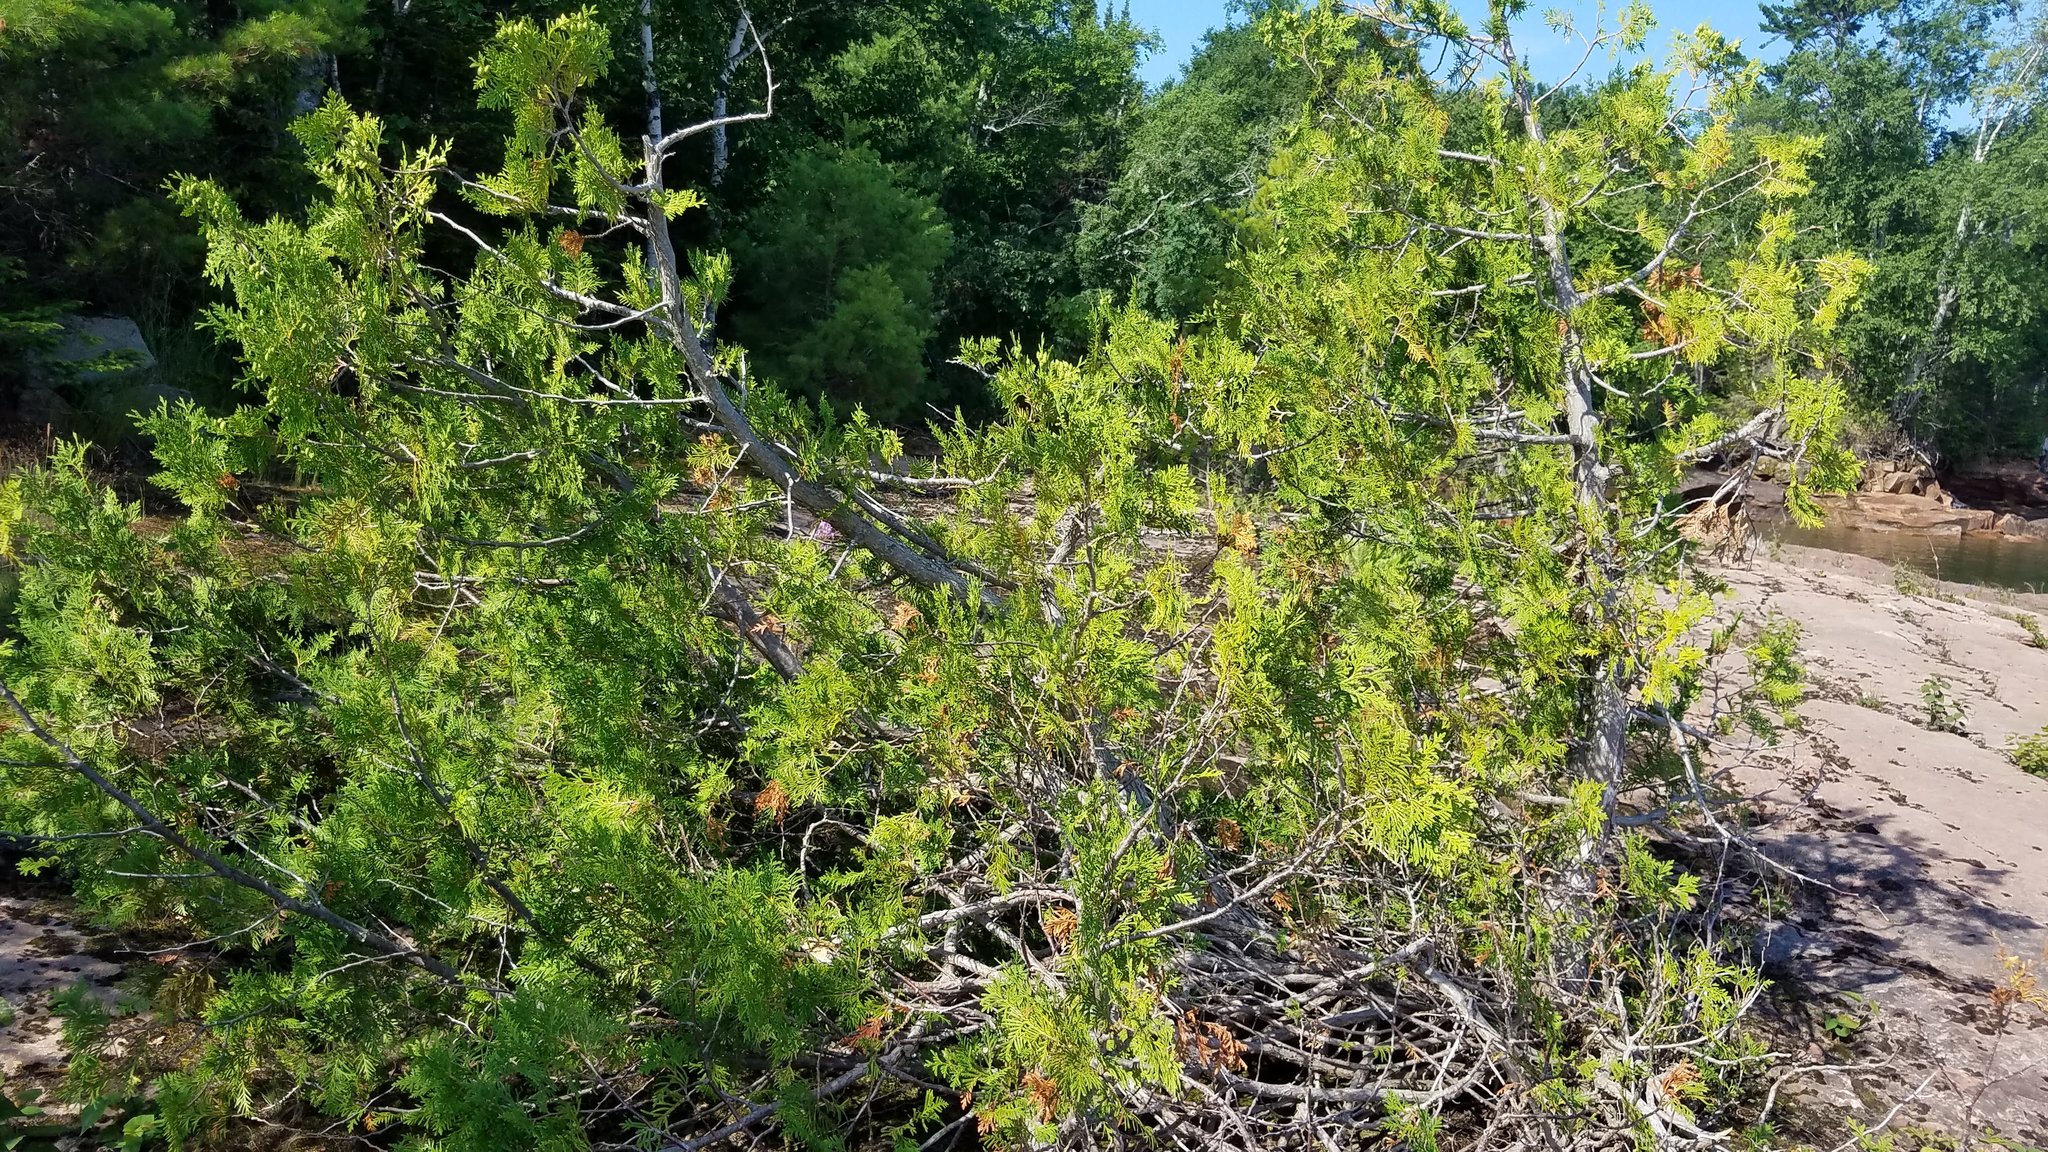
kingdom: Plantae
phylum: Tracheophyta
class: Pinopsida
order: Pinales
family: Cupressaceae
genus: Thuja
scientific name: Thuja occidentalis
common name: Northern white-cedar
